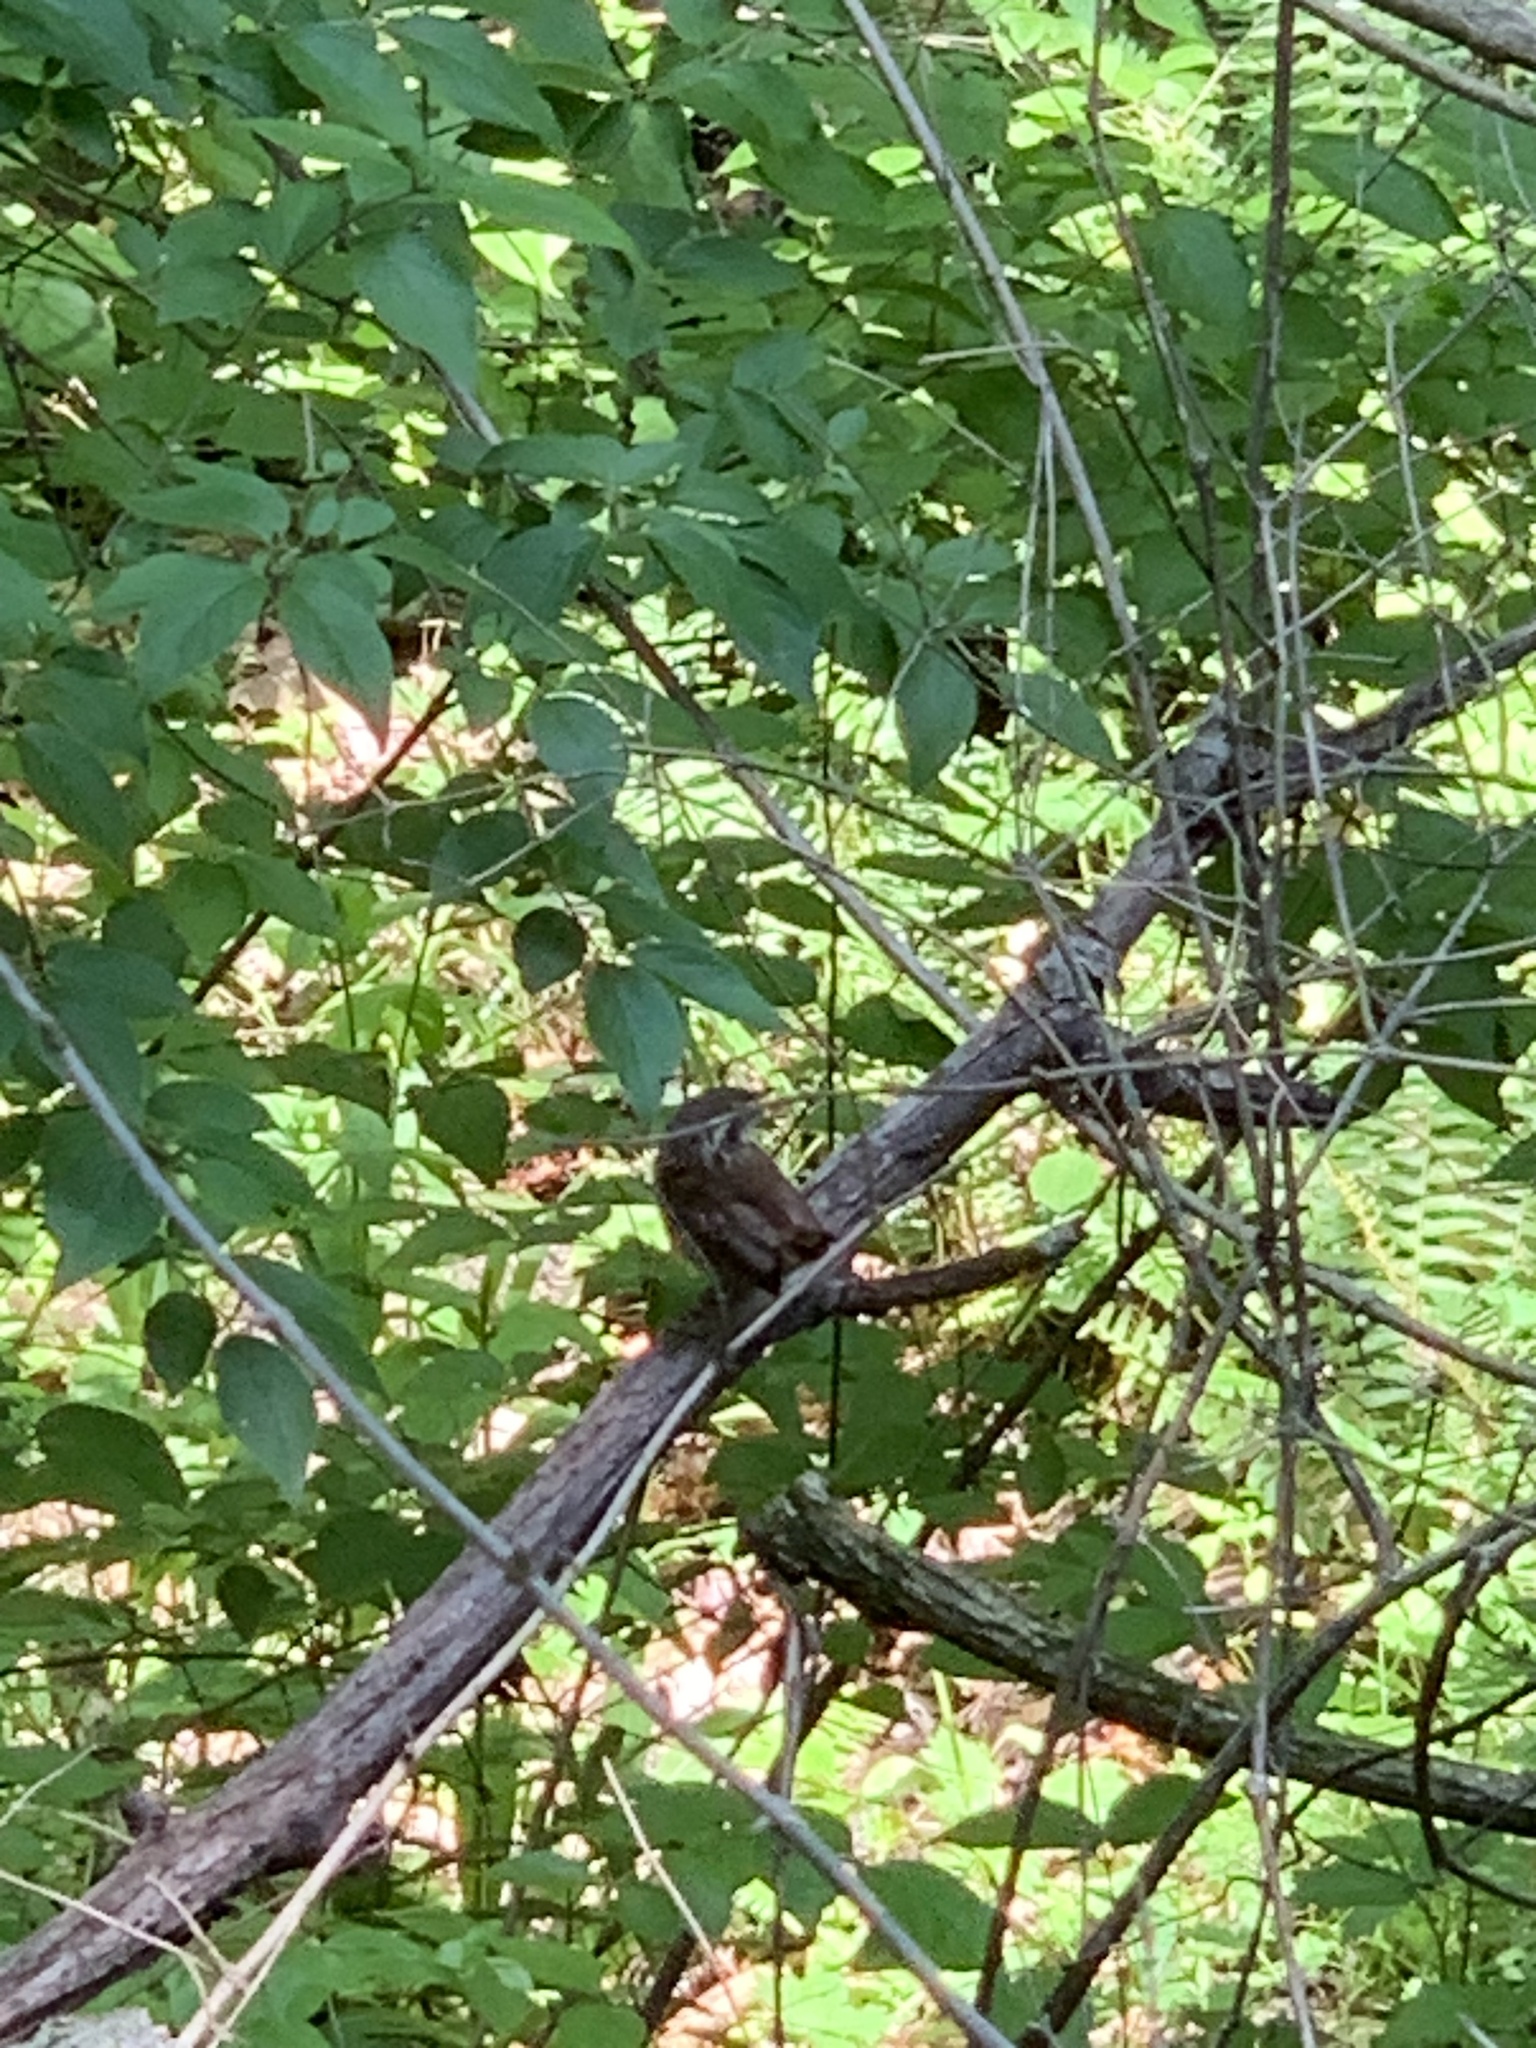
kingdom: Animalia
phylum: Chordata
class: Aves
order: Passeriformes
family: Troglodytidae
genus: Thryothorus
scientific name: Thryothorus ludovicianus
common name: Carolina wren
